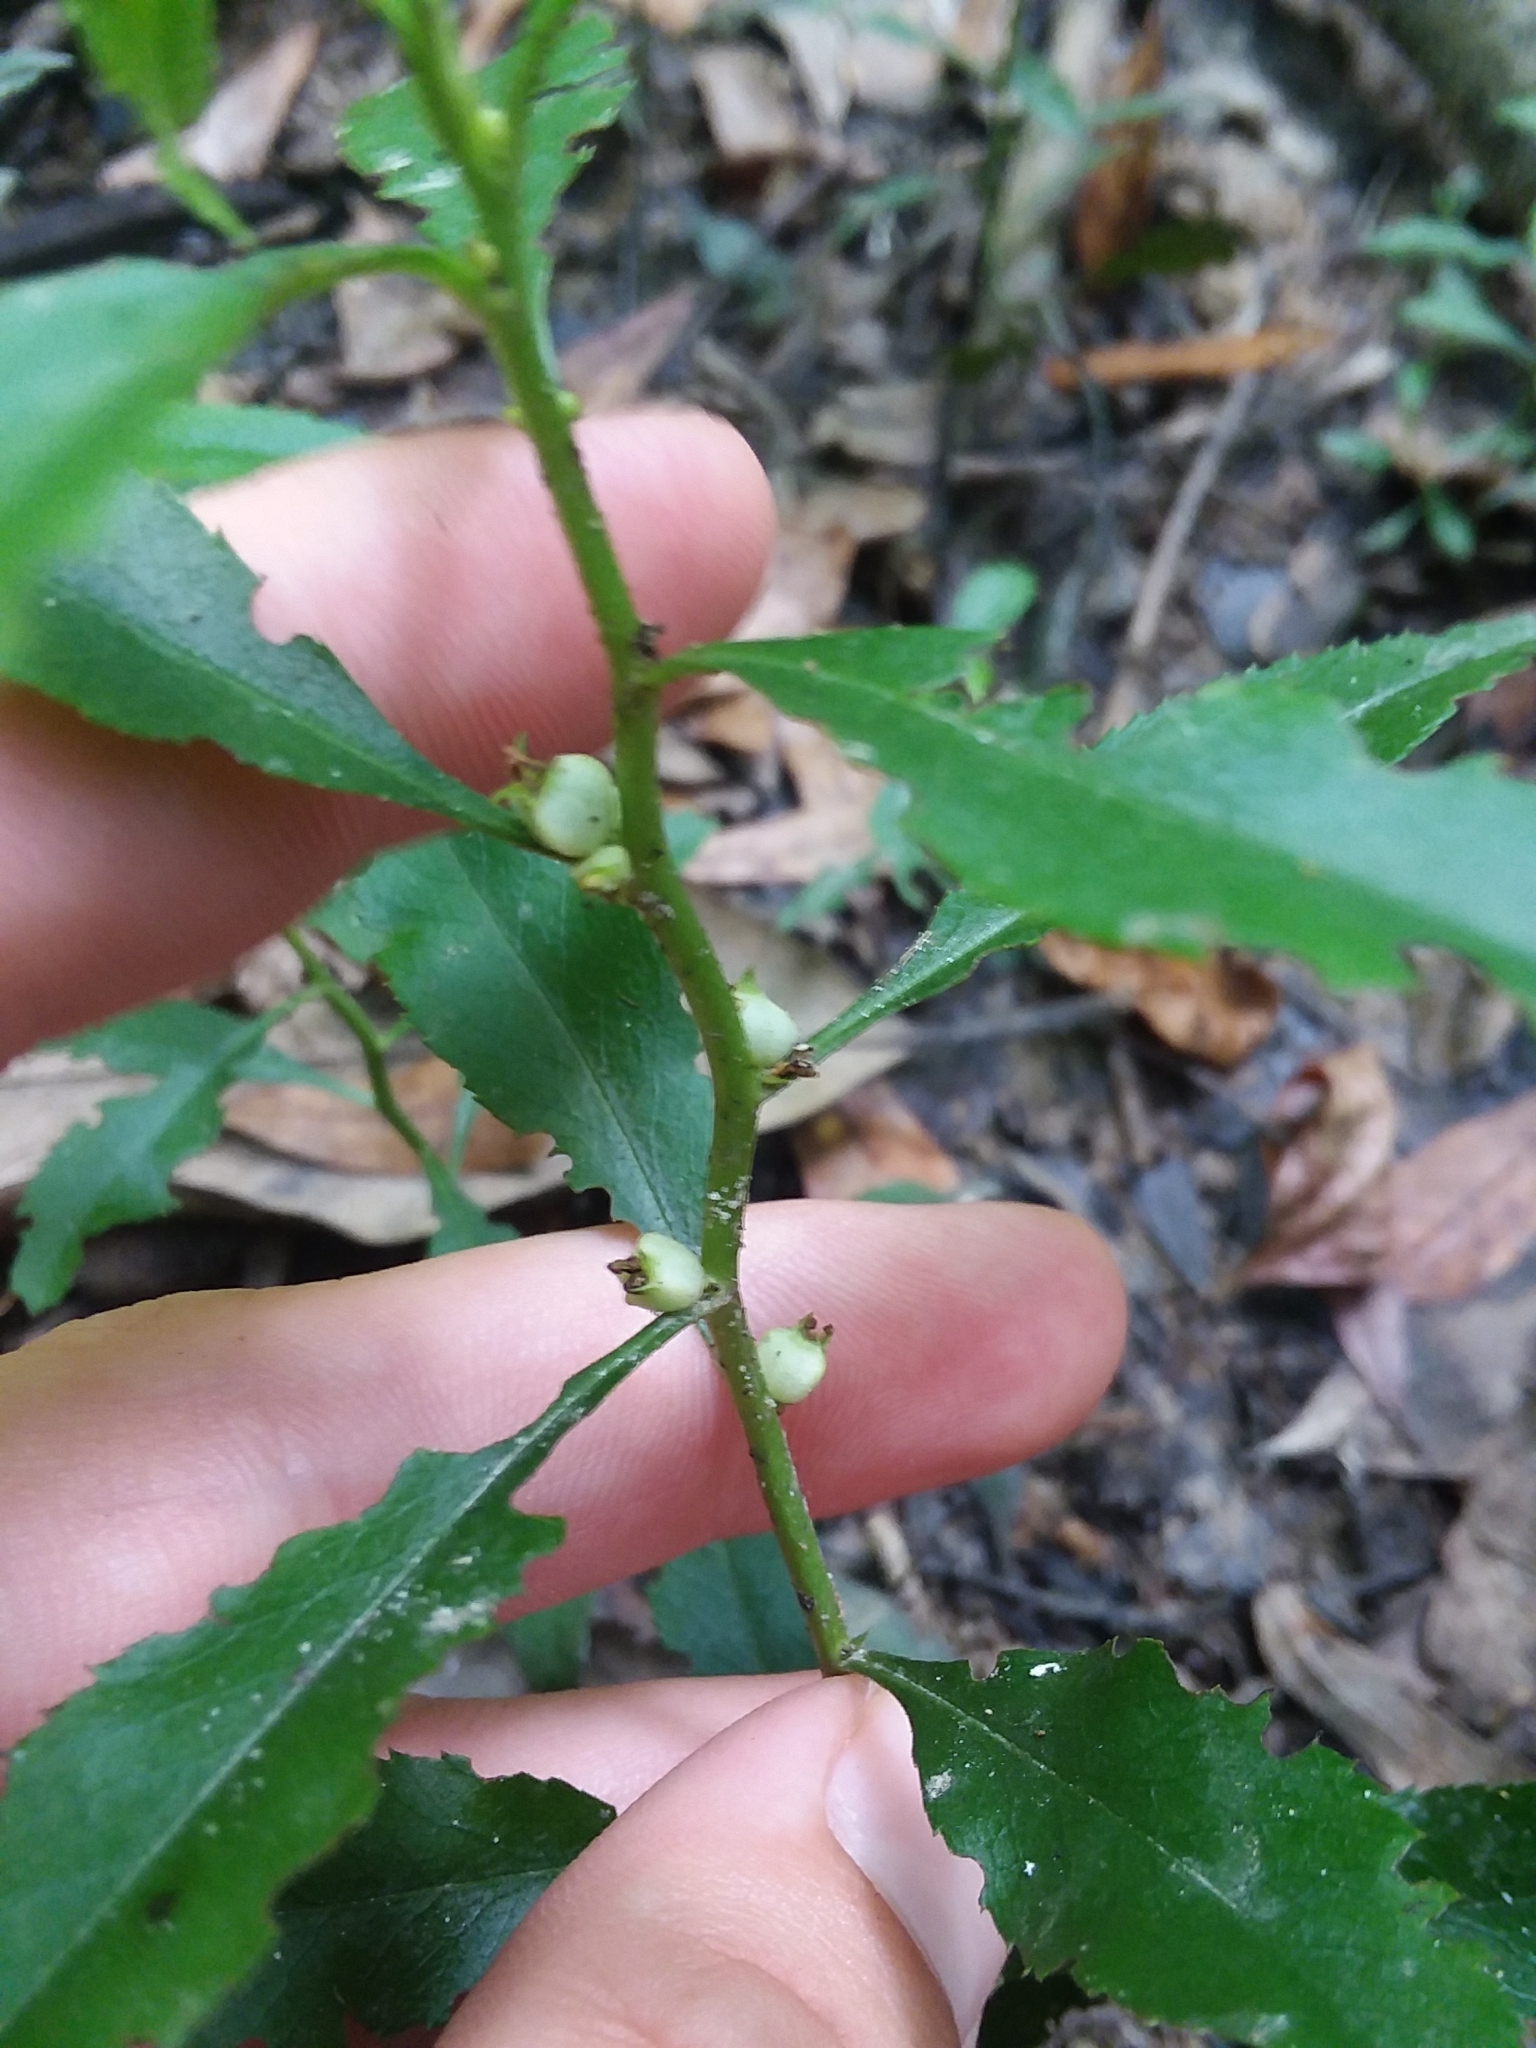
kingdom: Plantae
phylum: Tracheophyta
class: Magnoliopsida
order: Saxifragales
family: Haloragaceae
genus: Proserpinaca
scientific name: Proserpinaca palustris
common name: Marsh mermaidweed
